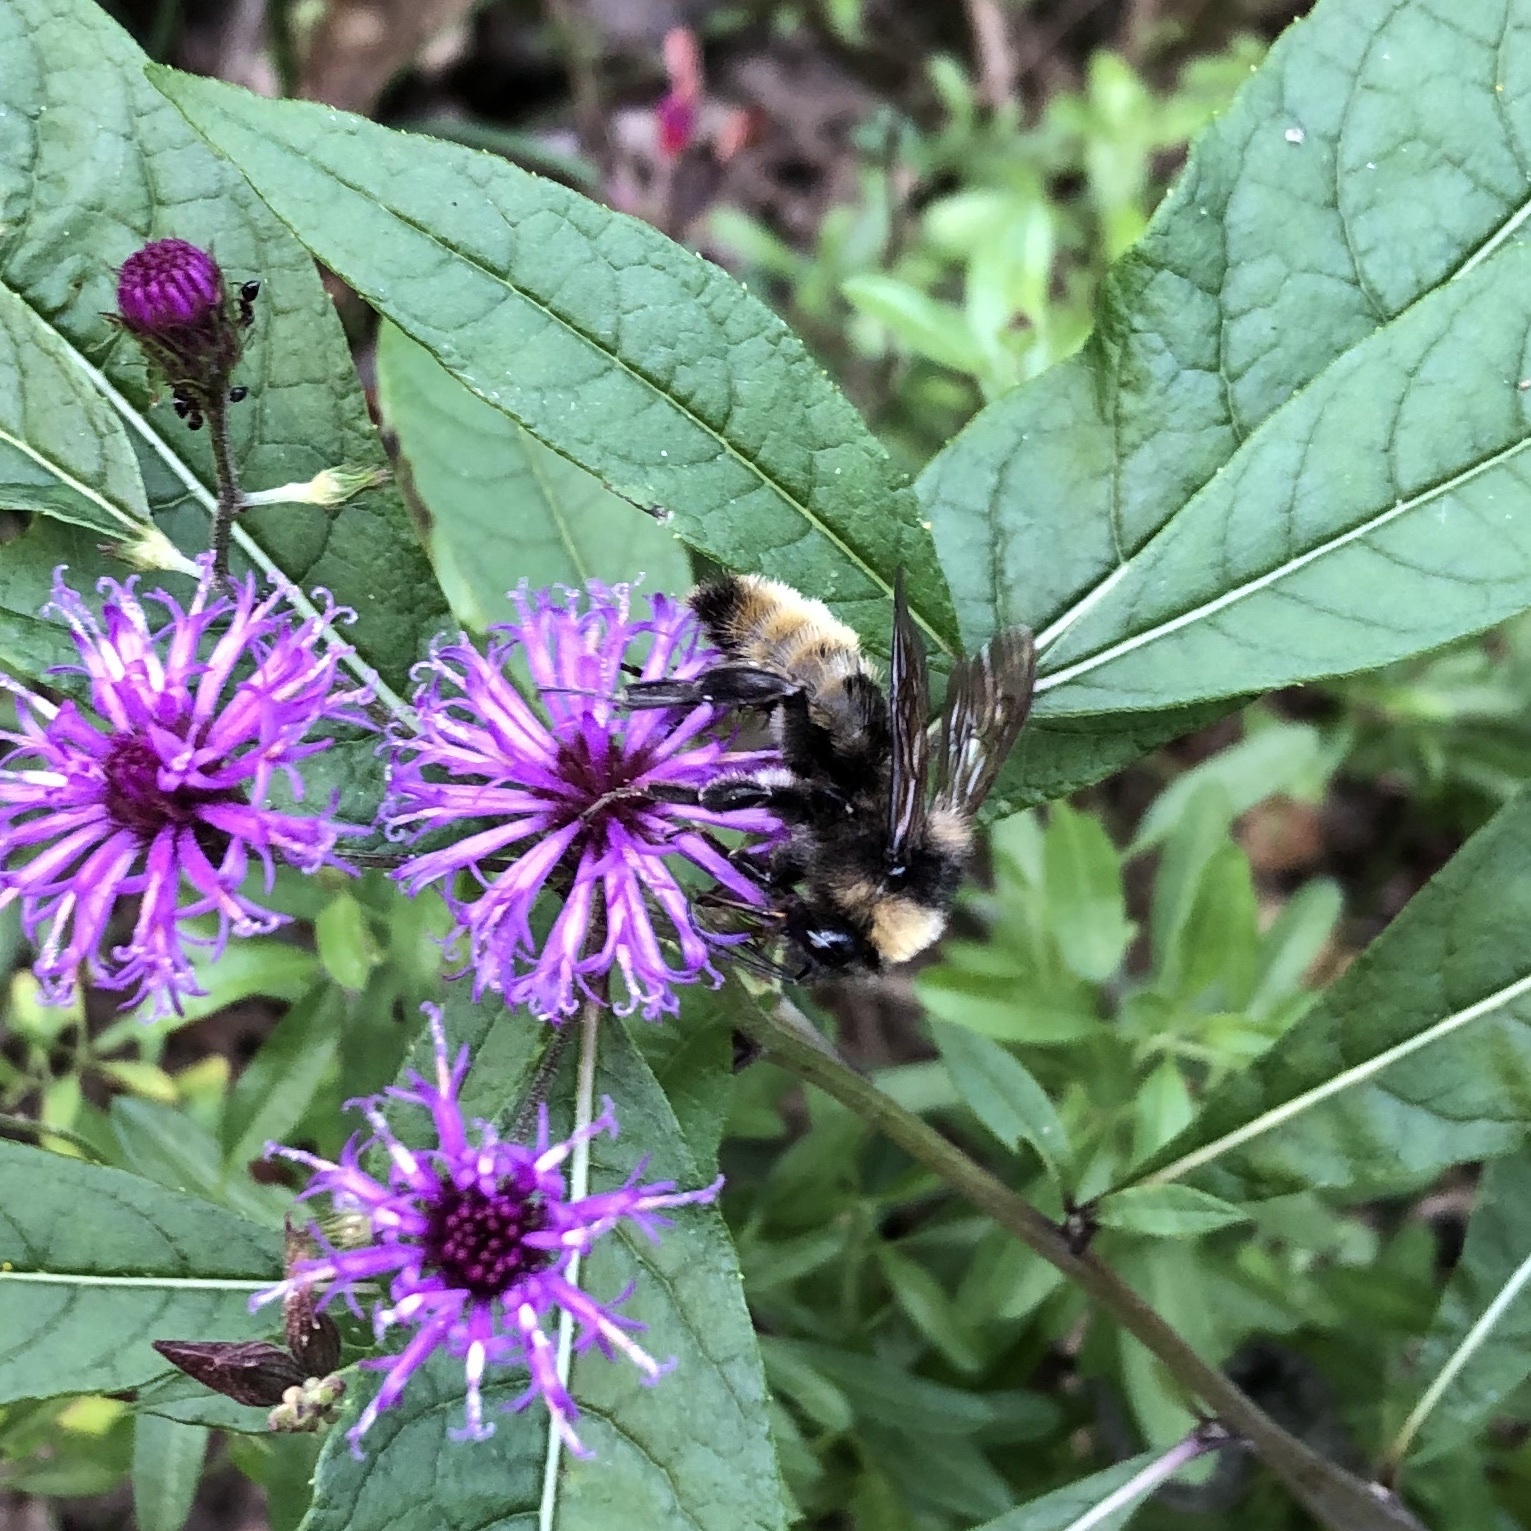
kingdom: Animalia
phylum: Arthropoda
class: Insecta
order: Hymenoptera
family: Apidae
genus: Bombus
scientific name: Bombus pensylvanicus
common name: Bumble bee
